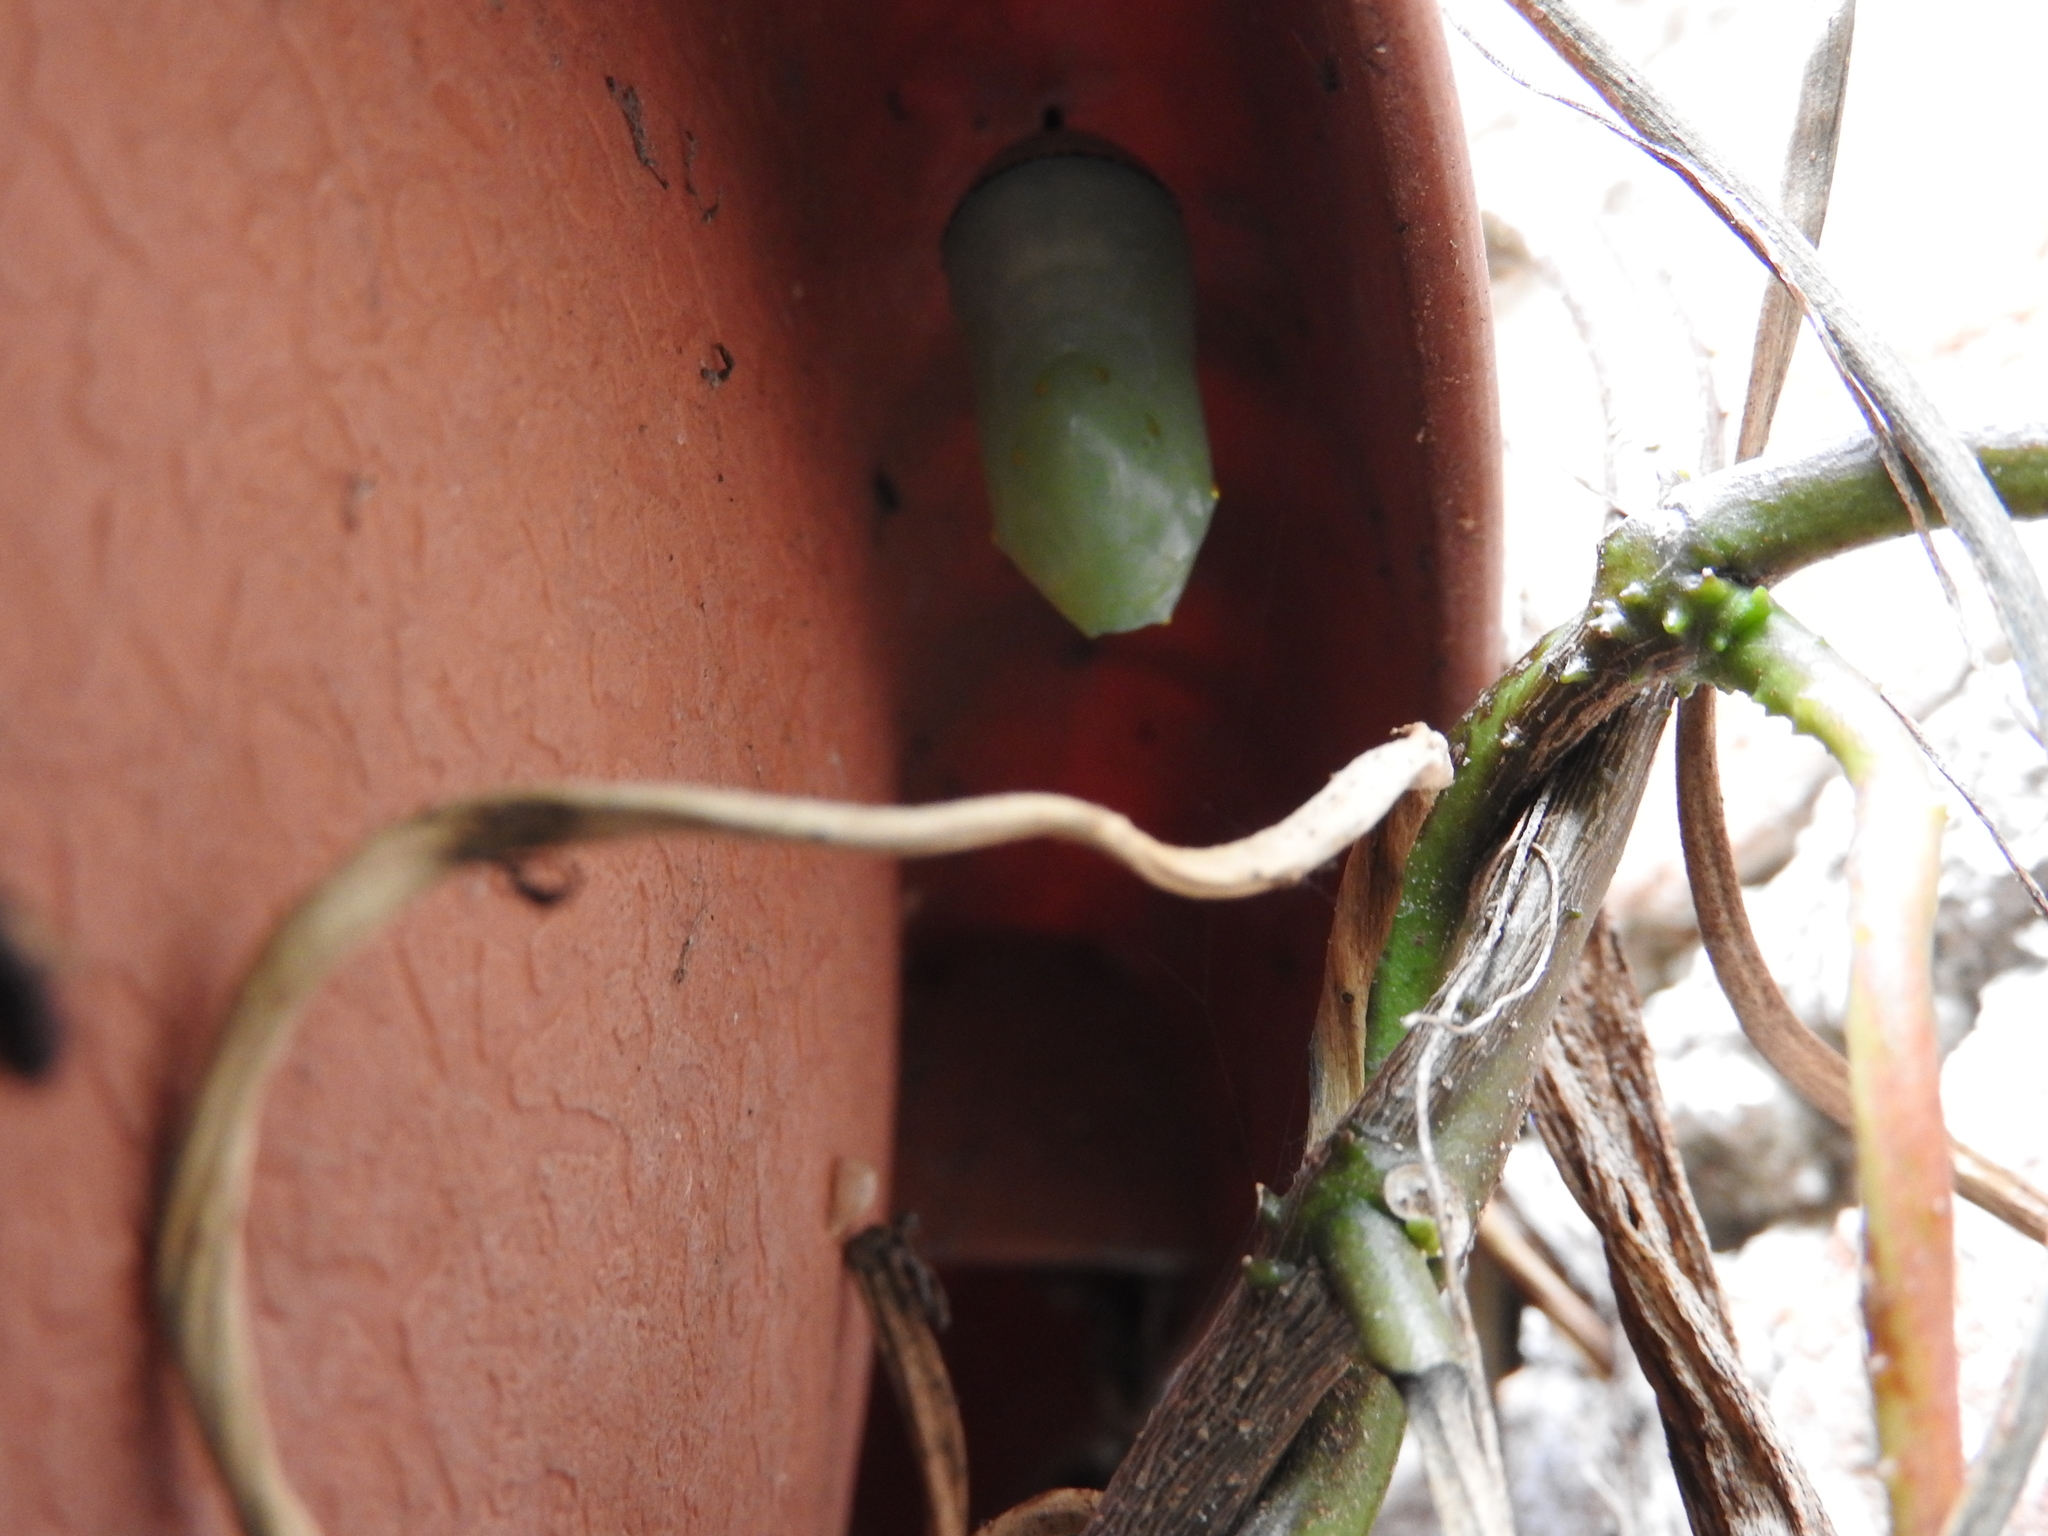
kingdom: Animalia
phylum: Arthropoda
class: Insecta
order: Lepidoptera
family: Nymphalidae
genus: Danaus
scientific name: Danaus plexippus
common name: Monarch
